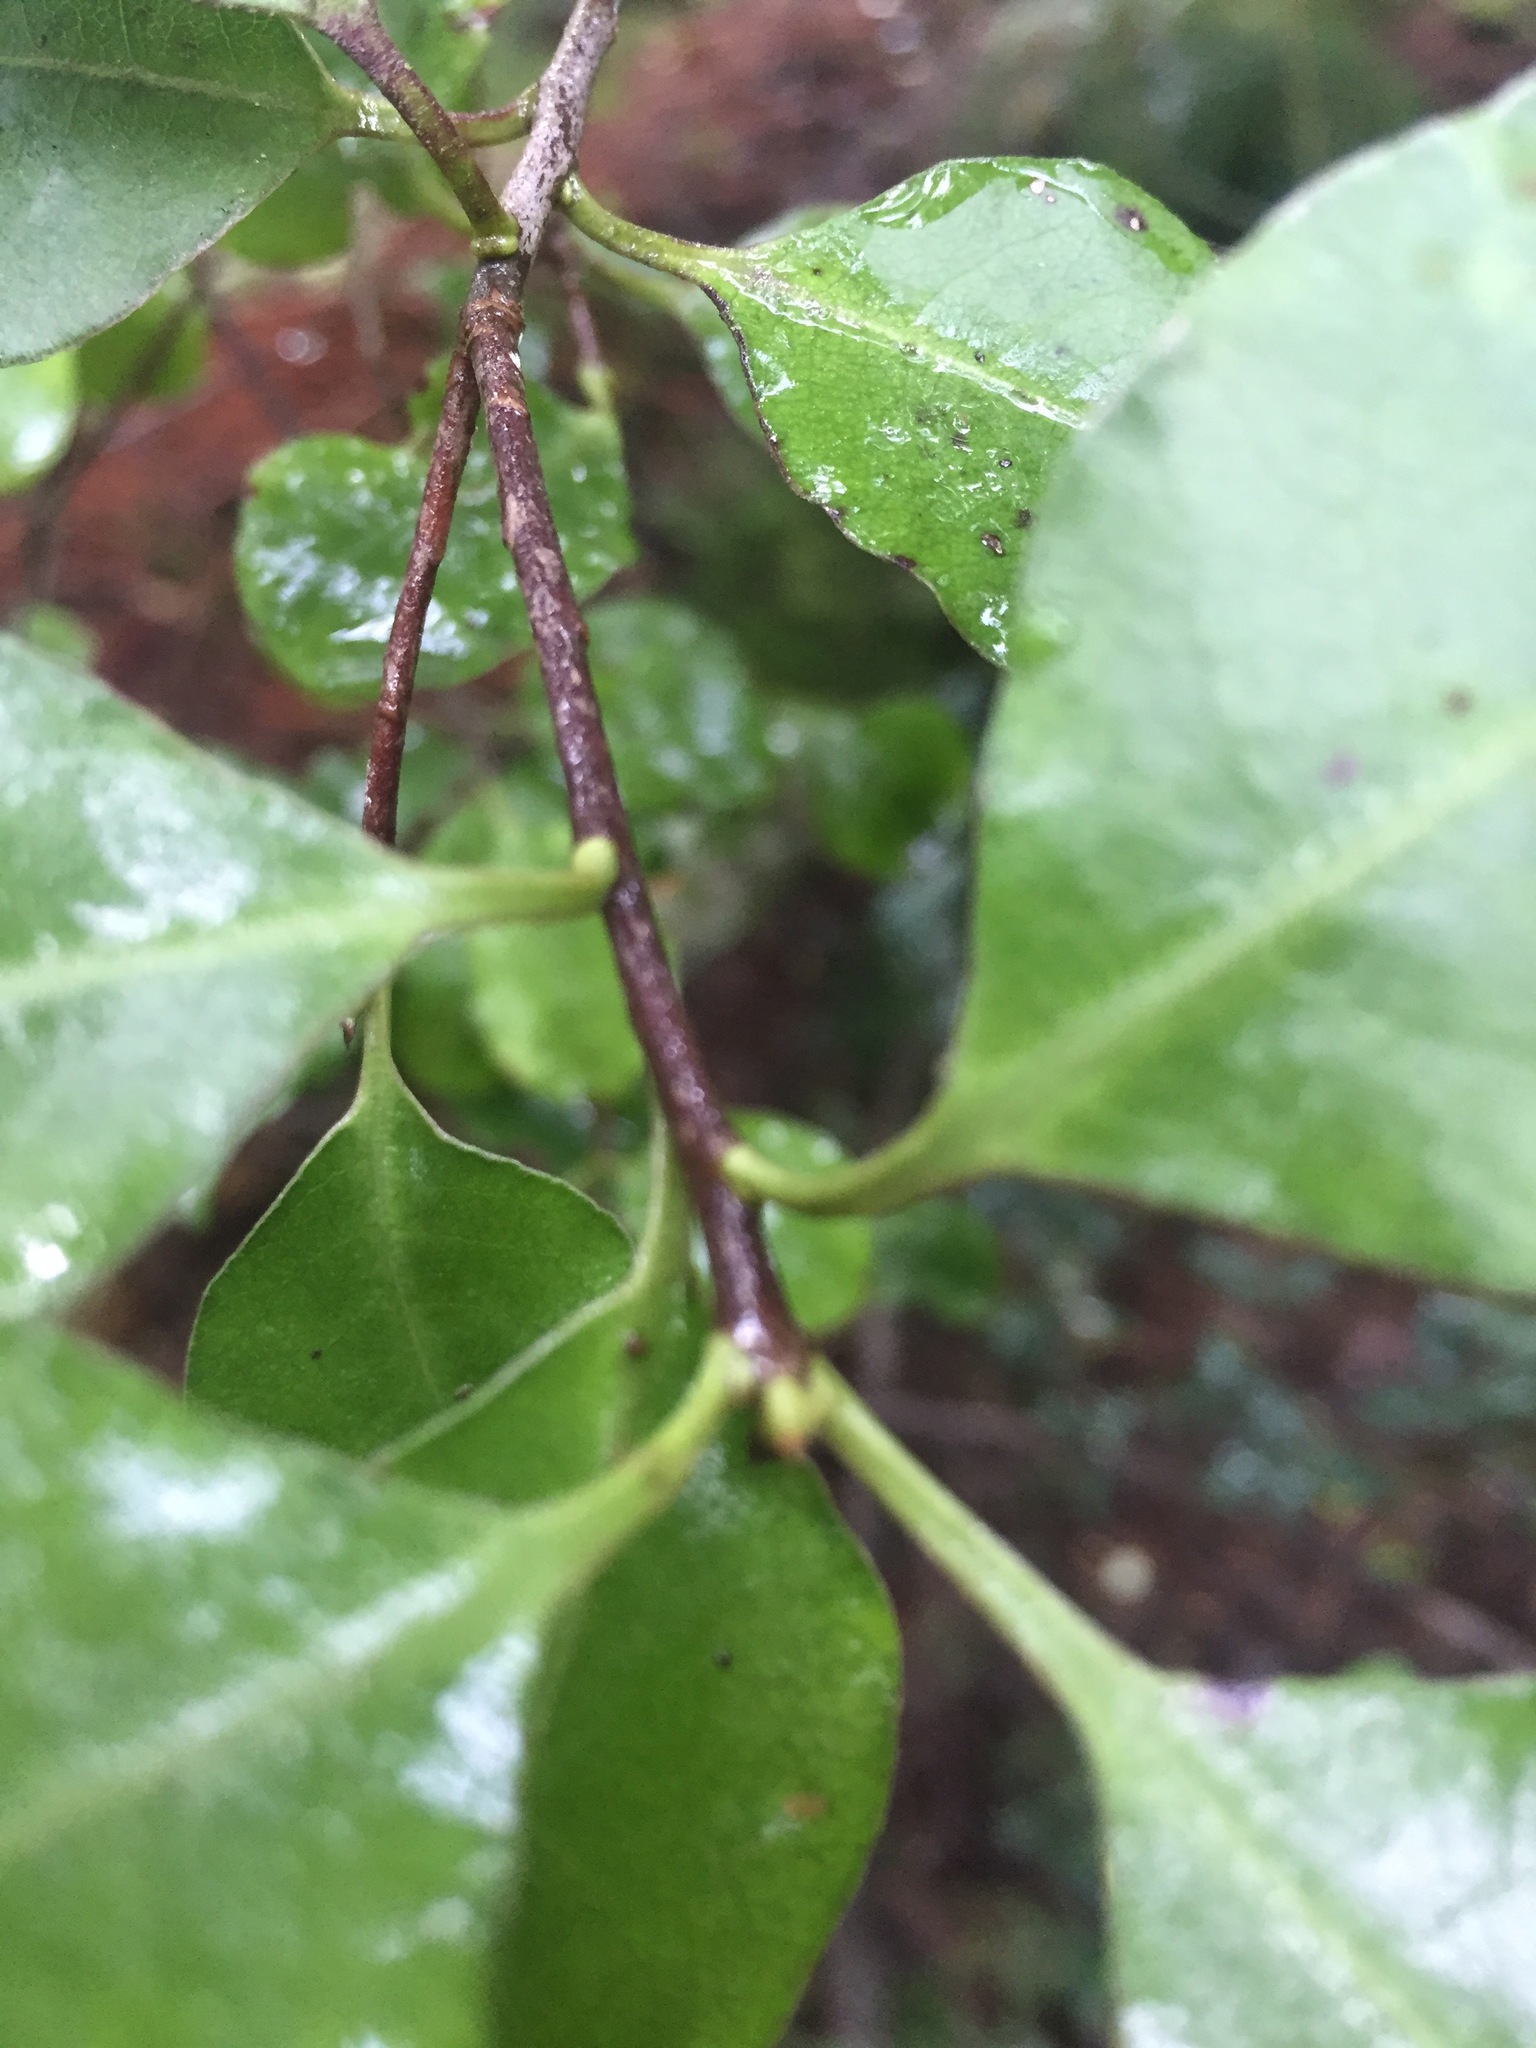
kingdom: Plantae
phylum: Tracheophyta
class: Magnoliopsida
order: Apiales
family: Pittosporaceae
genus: Pittosporum
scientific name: Pittosporum tenuifolium
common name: Kohuhu
